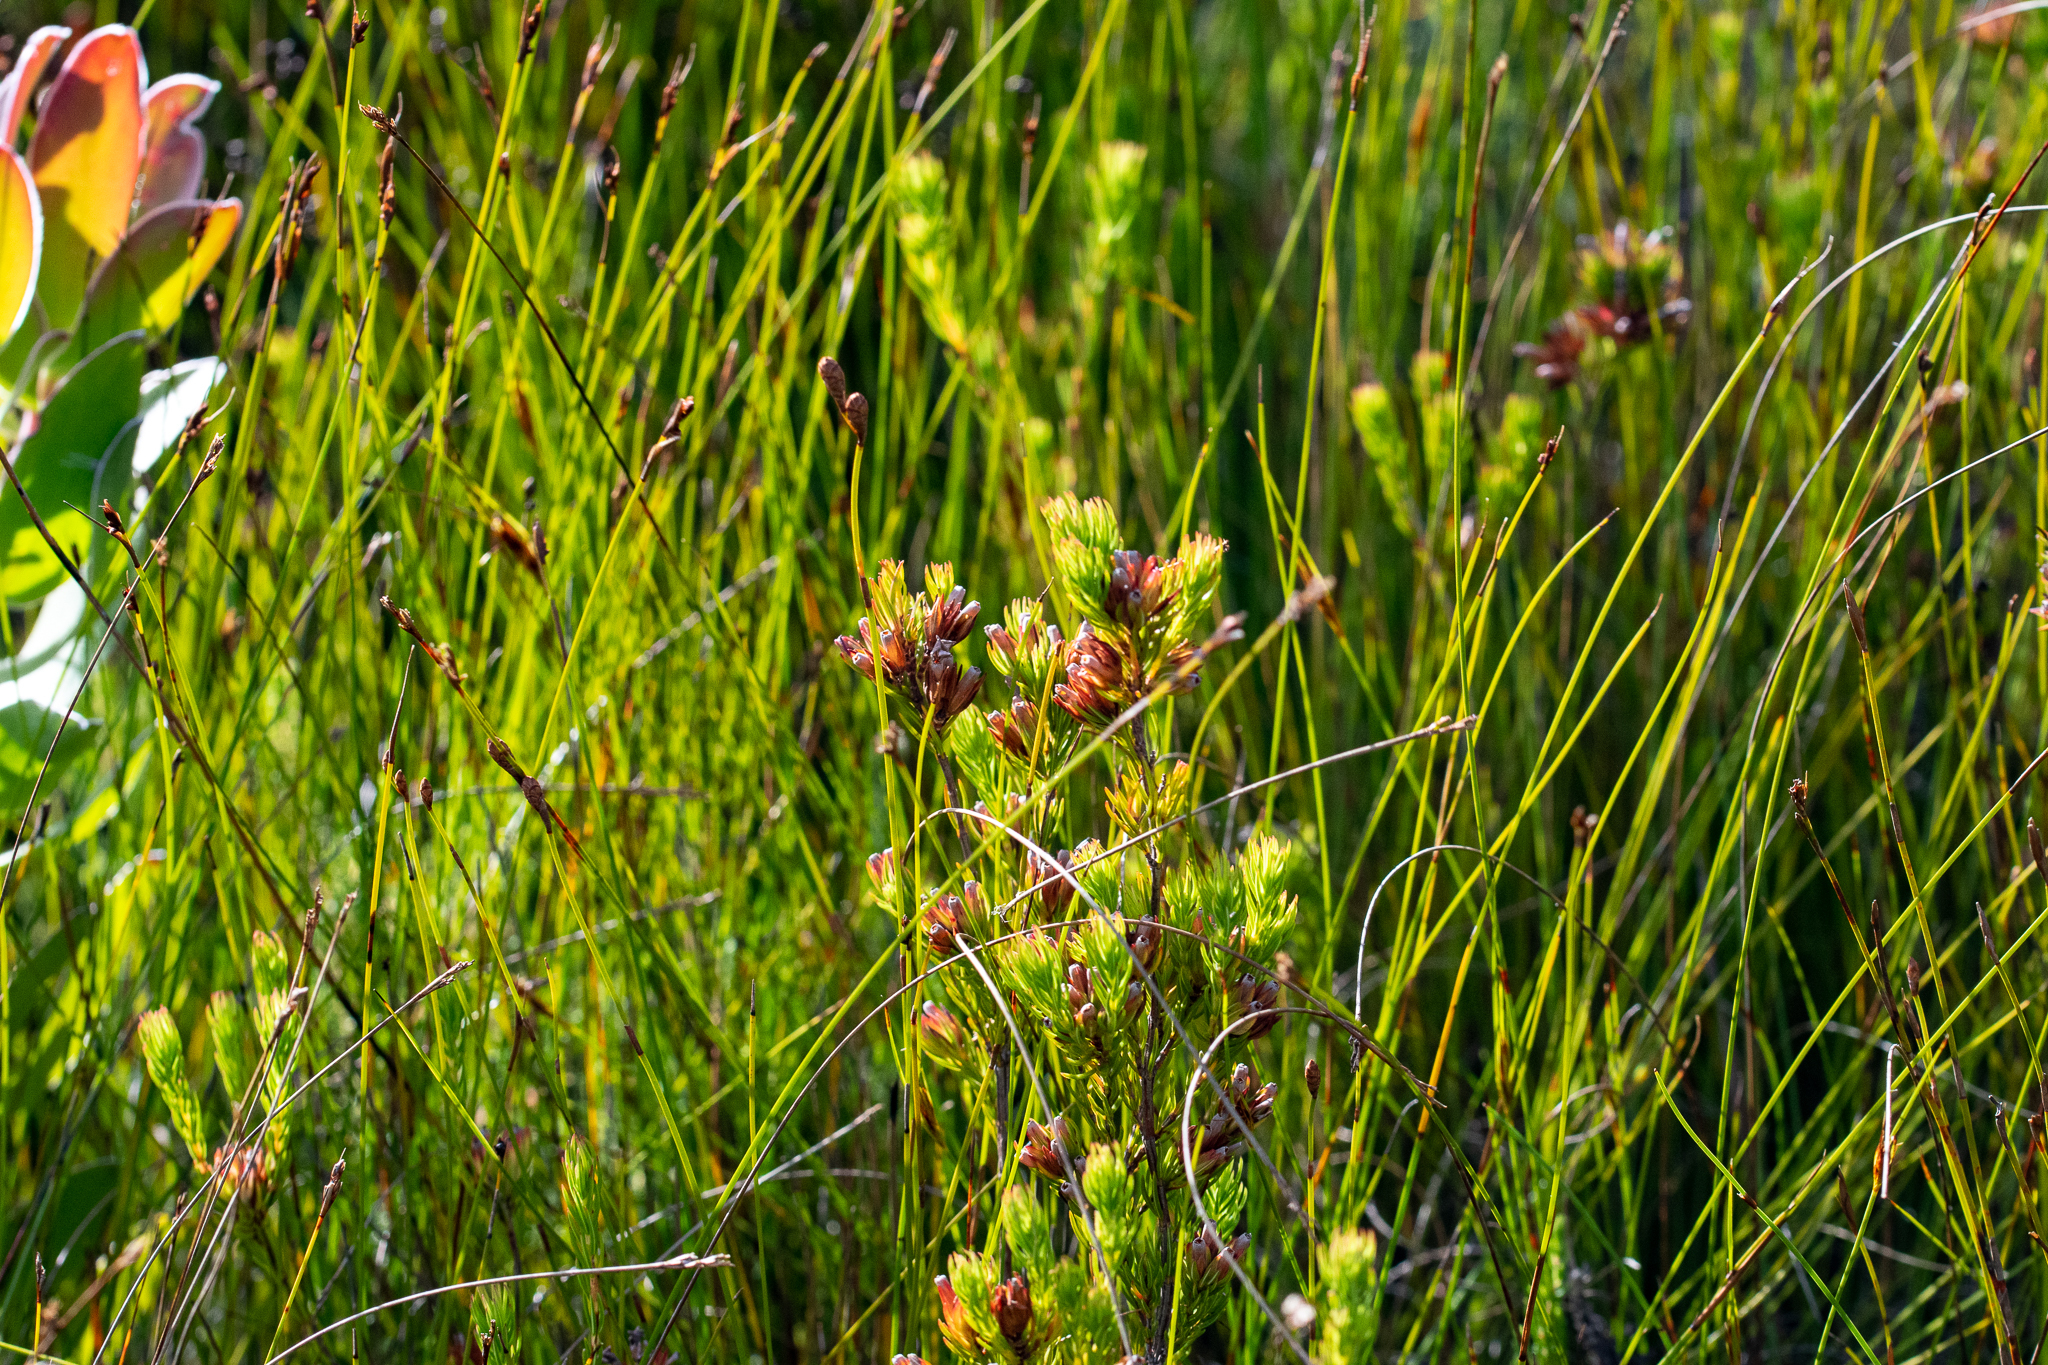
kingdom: Plantae
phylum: Tracheophyta
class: Magnoliopsida
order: Ericales
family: Ericaceae
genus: Erica
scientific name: Erica fastigiata
